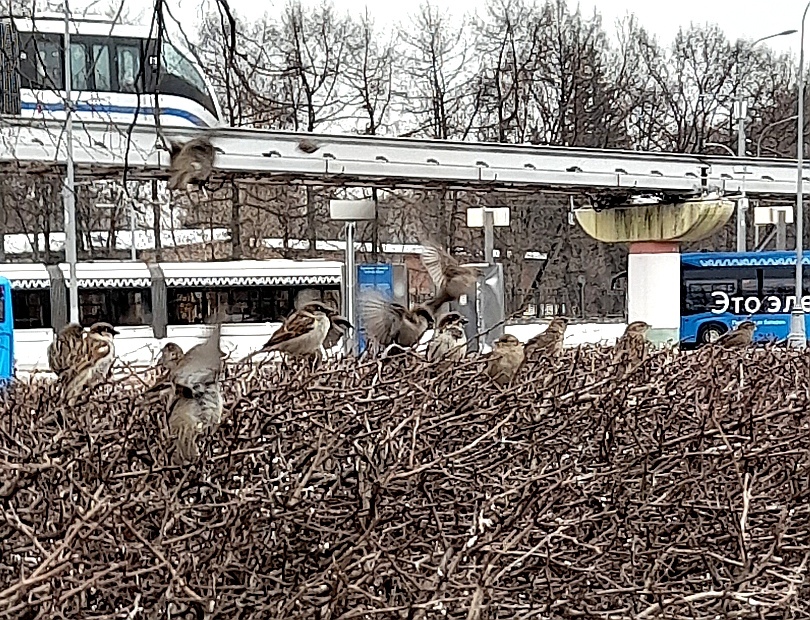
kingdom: Animalia
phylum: Chordata
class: Aves
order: Passeriformes
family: Passeridae
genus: Passer
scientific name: Passer domesticus
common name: House sparrow
